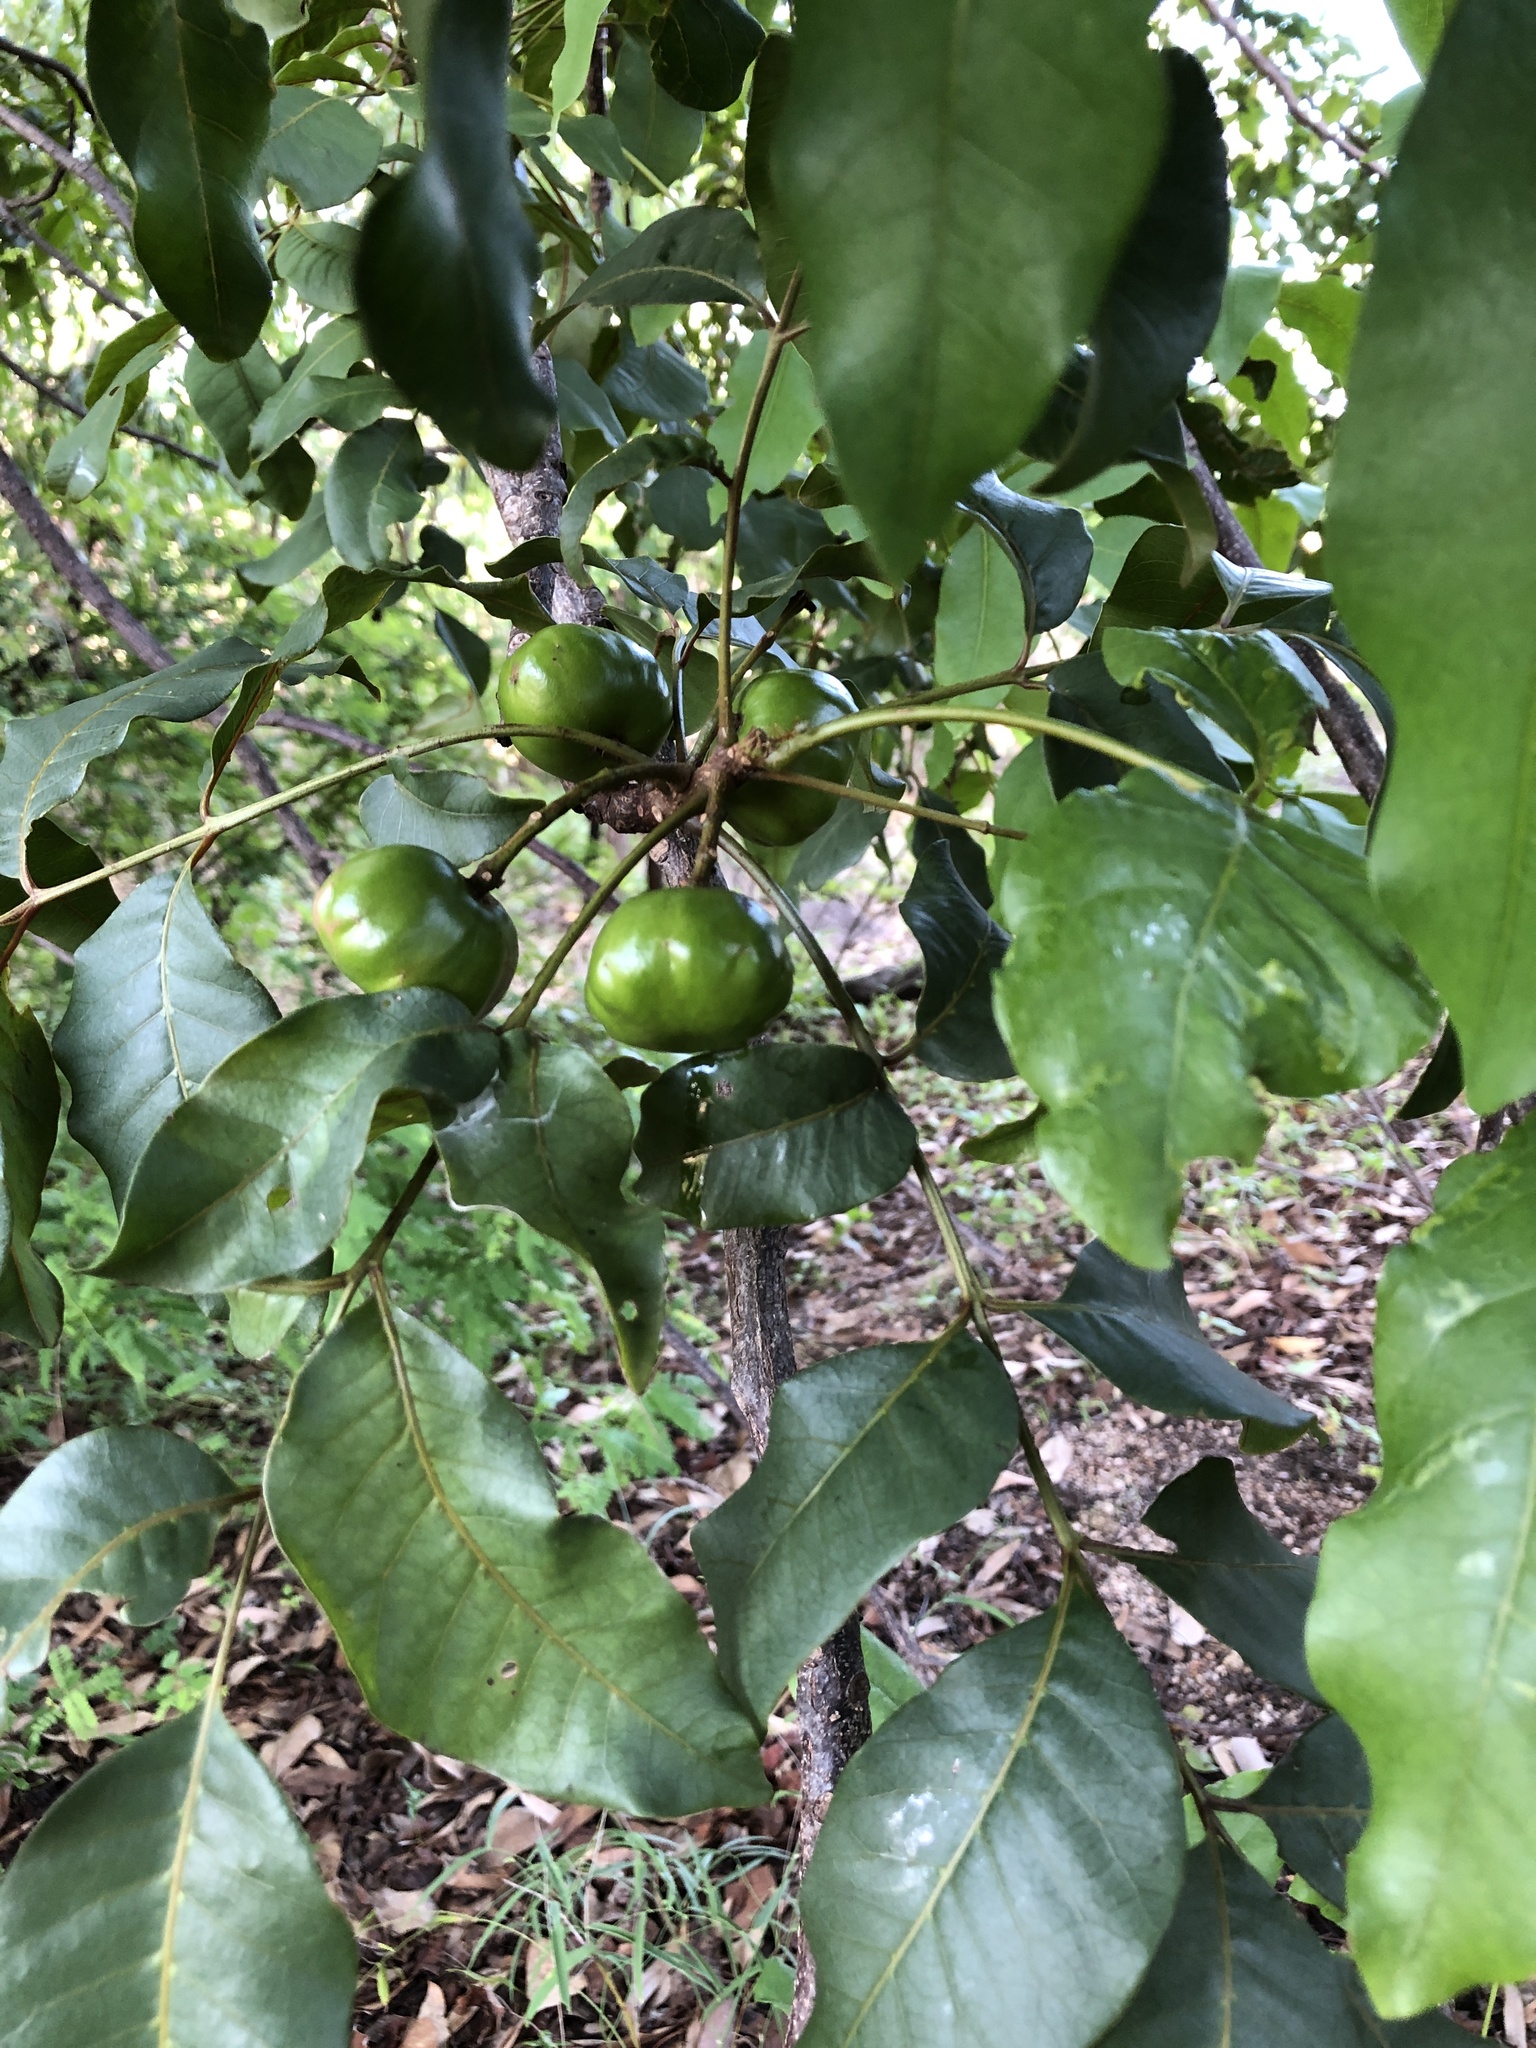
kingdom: Plantae
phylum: Tracheophyta
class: Magnoliopsida
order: Sapindales
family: Anacardiaceae
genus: Pleiogynium
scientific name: Pleiogynium timoriense
